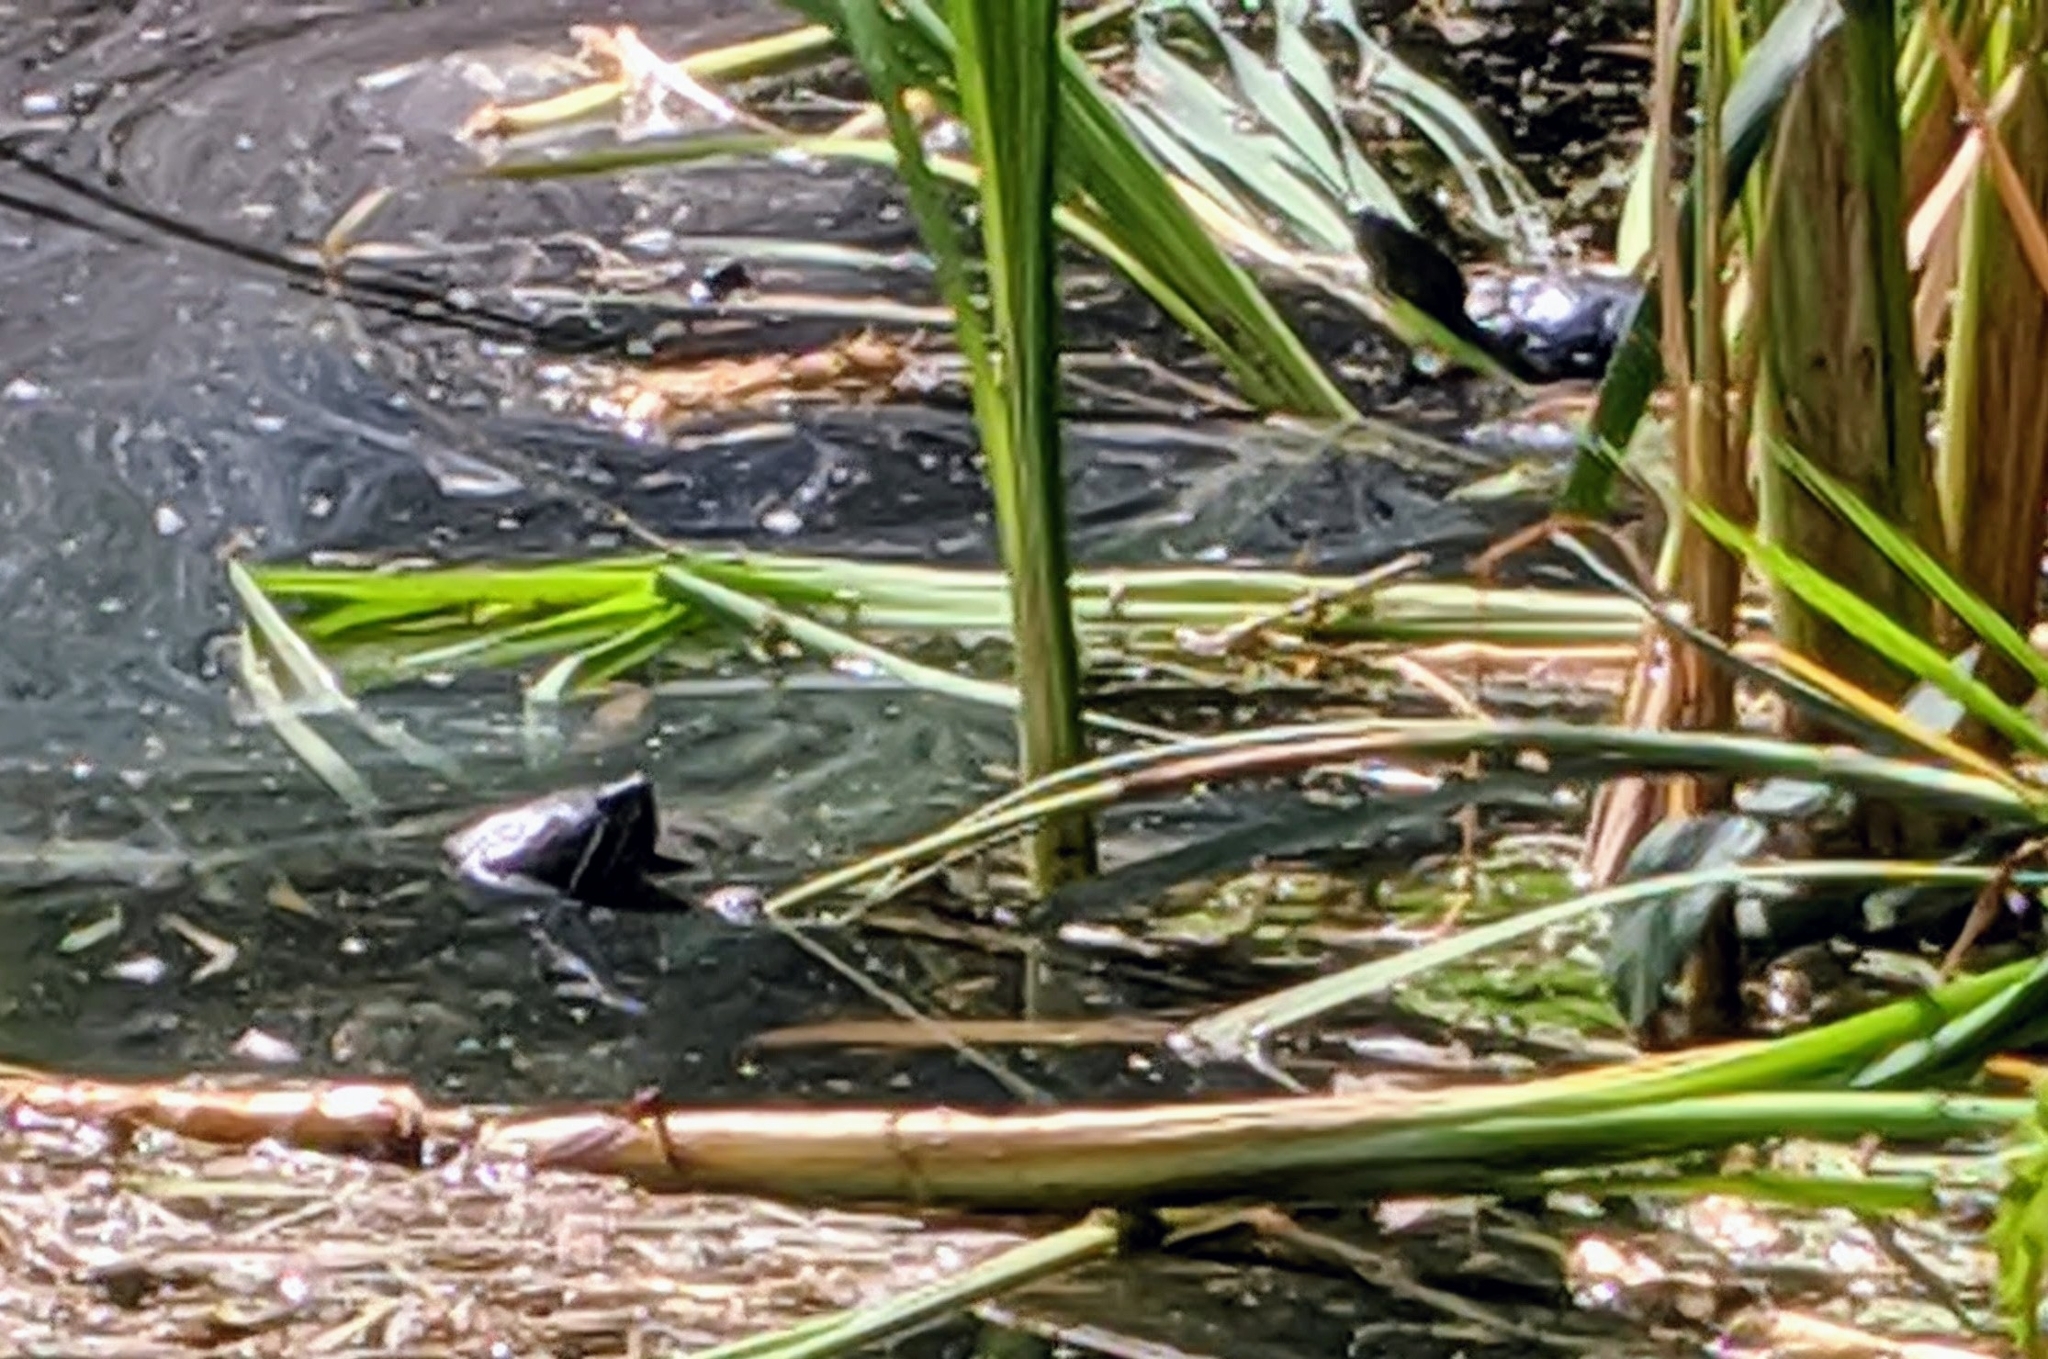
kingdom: Animalia
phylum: Chordata
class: Testudines
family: Emydidae
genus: Trachemys
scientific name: Trachemys scripta
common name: Slider
